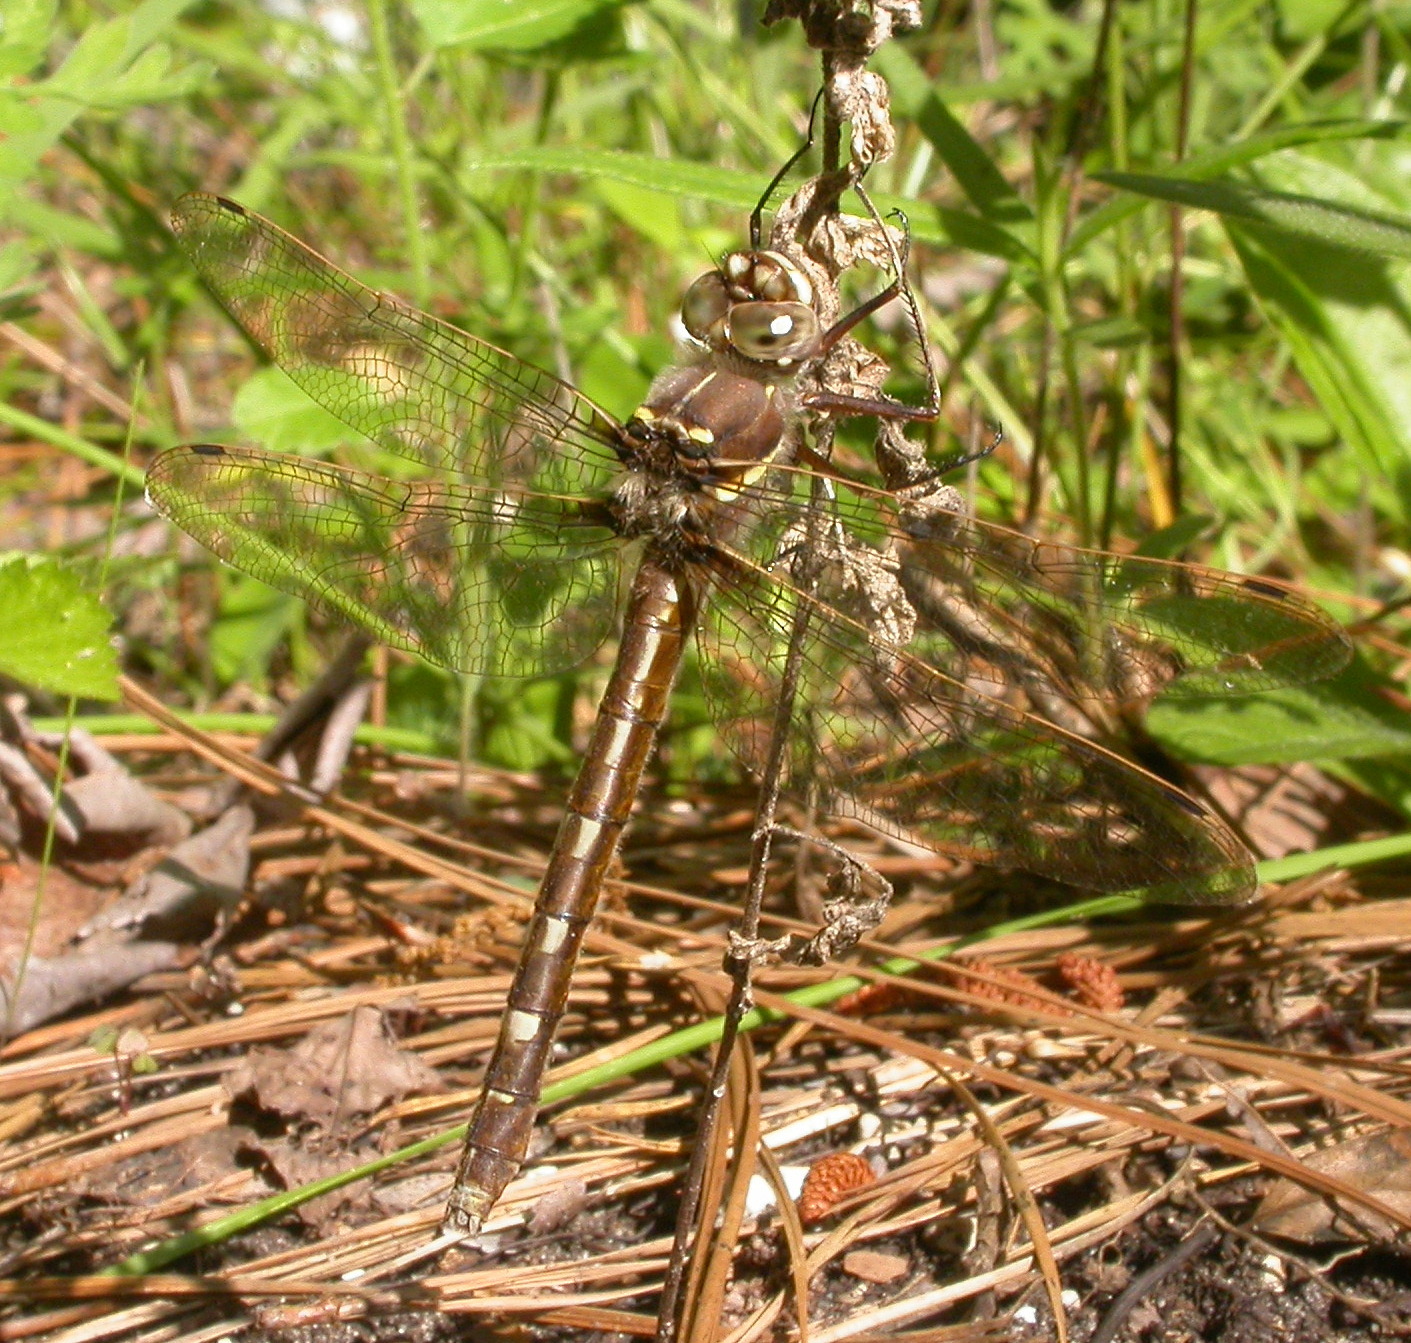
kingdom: Animalia
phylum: Arthropoda
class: Insecta
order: Odonata
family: Macromiidae
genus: Didymops
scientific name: Didymops transversa
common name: Stream cruiser
